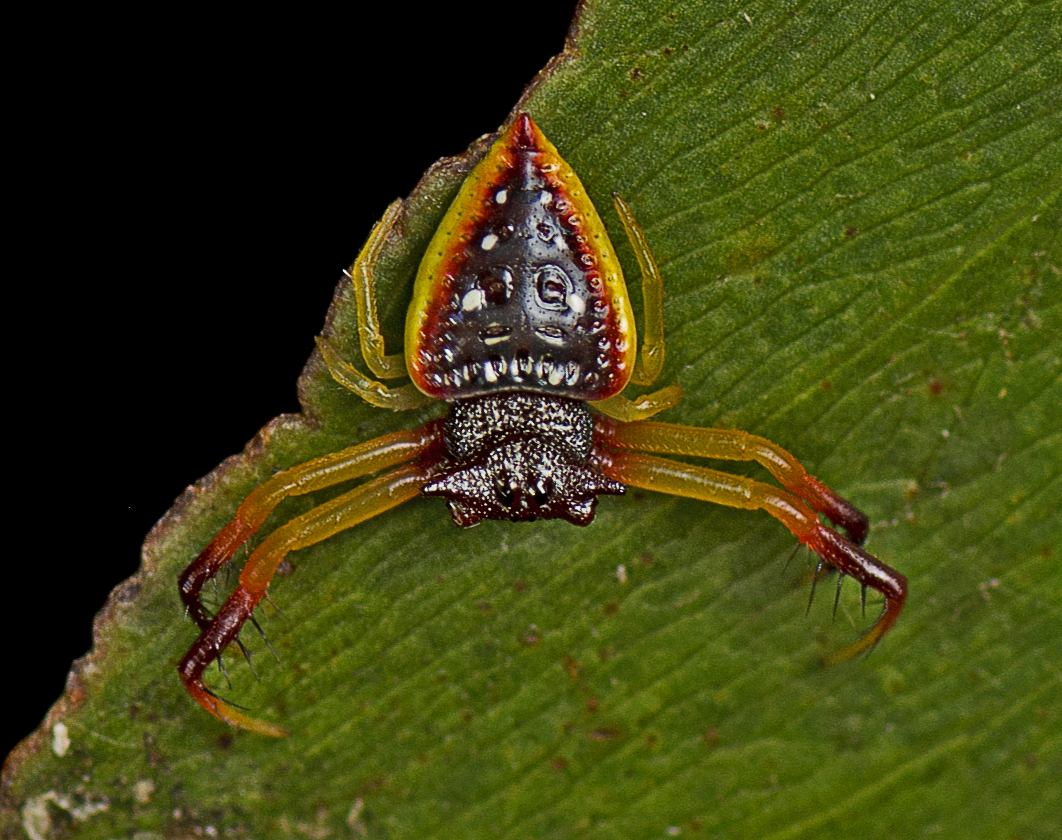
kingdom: Animalia
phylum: Arthropoda
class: Arachnida
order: Araneae
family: Arkyidae
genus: Arkys
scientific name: Arkys cornutus
